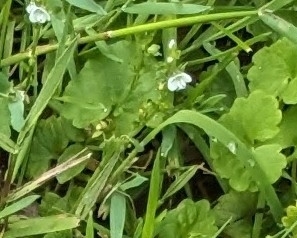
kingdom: Plantae
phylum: Tracheophyta
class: Magnoliopsida
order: Lamiales
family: Plantaginaceae
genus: Veronica
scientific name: Veronica serpyllifolia
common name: Thyme-leaved speedwell
